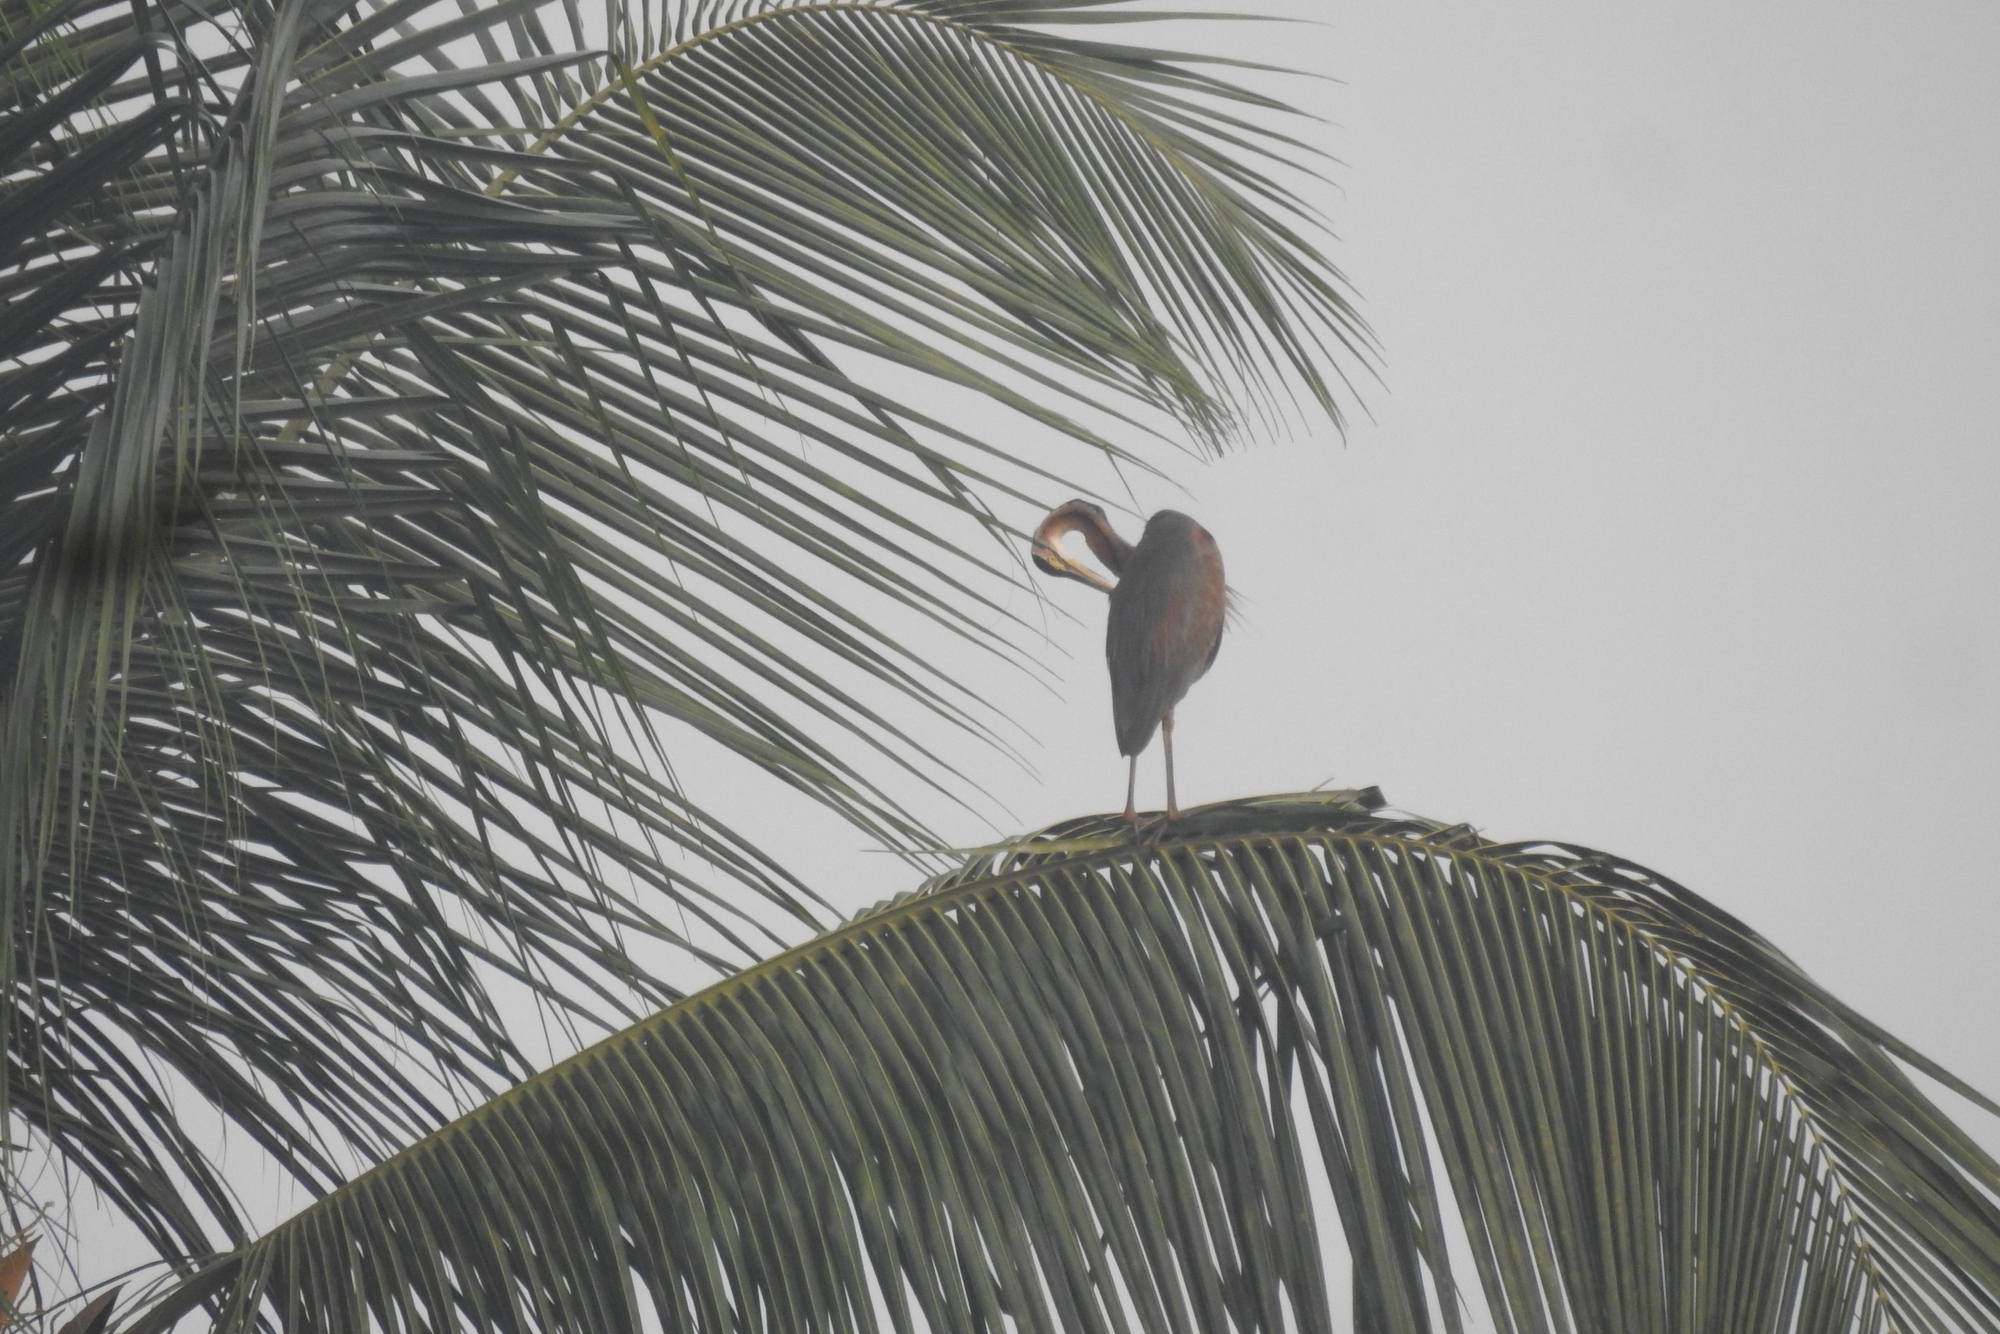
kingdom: Animalia
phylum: Chordata
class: Aves
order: Pelecaniformes
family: Ardeidae
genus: Ardea
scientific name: Ardea purpurea
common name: Purple heron
